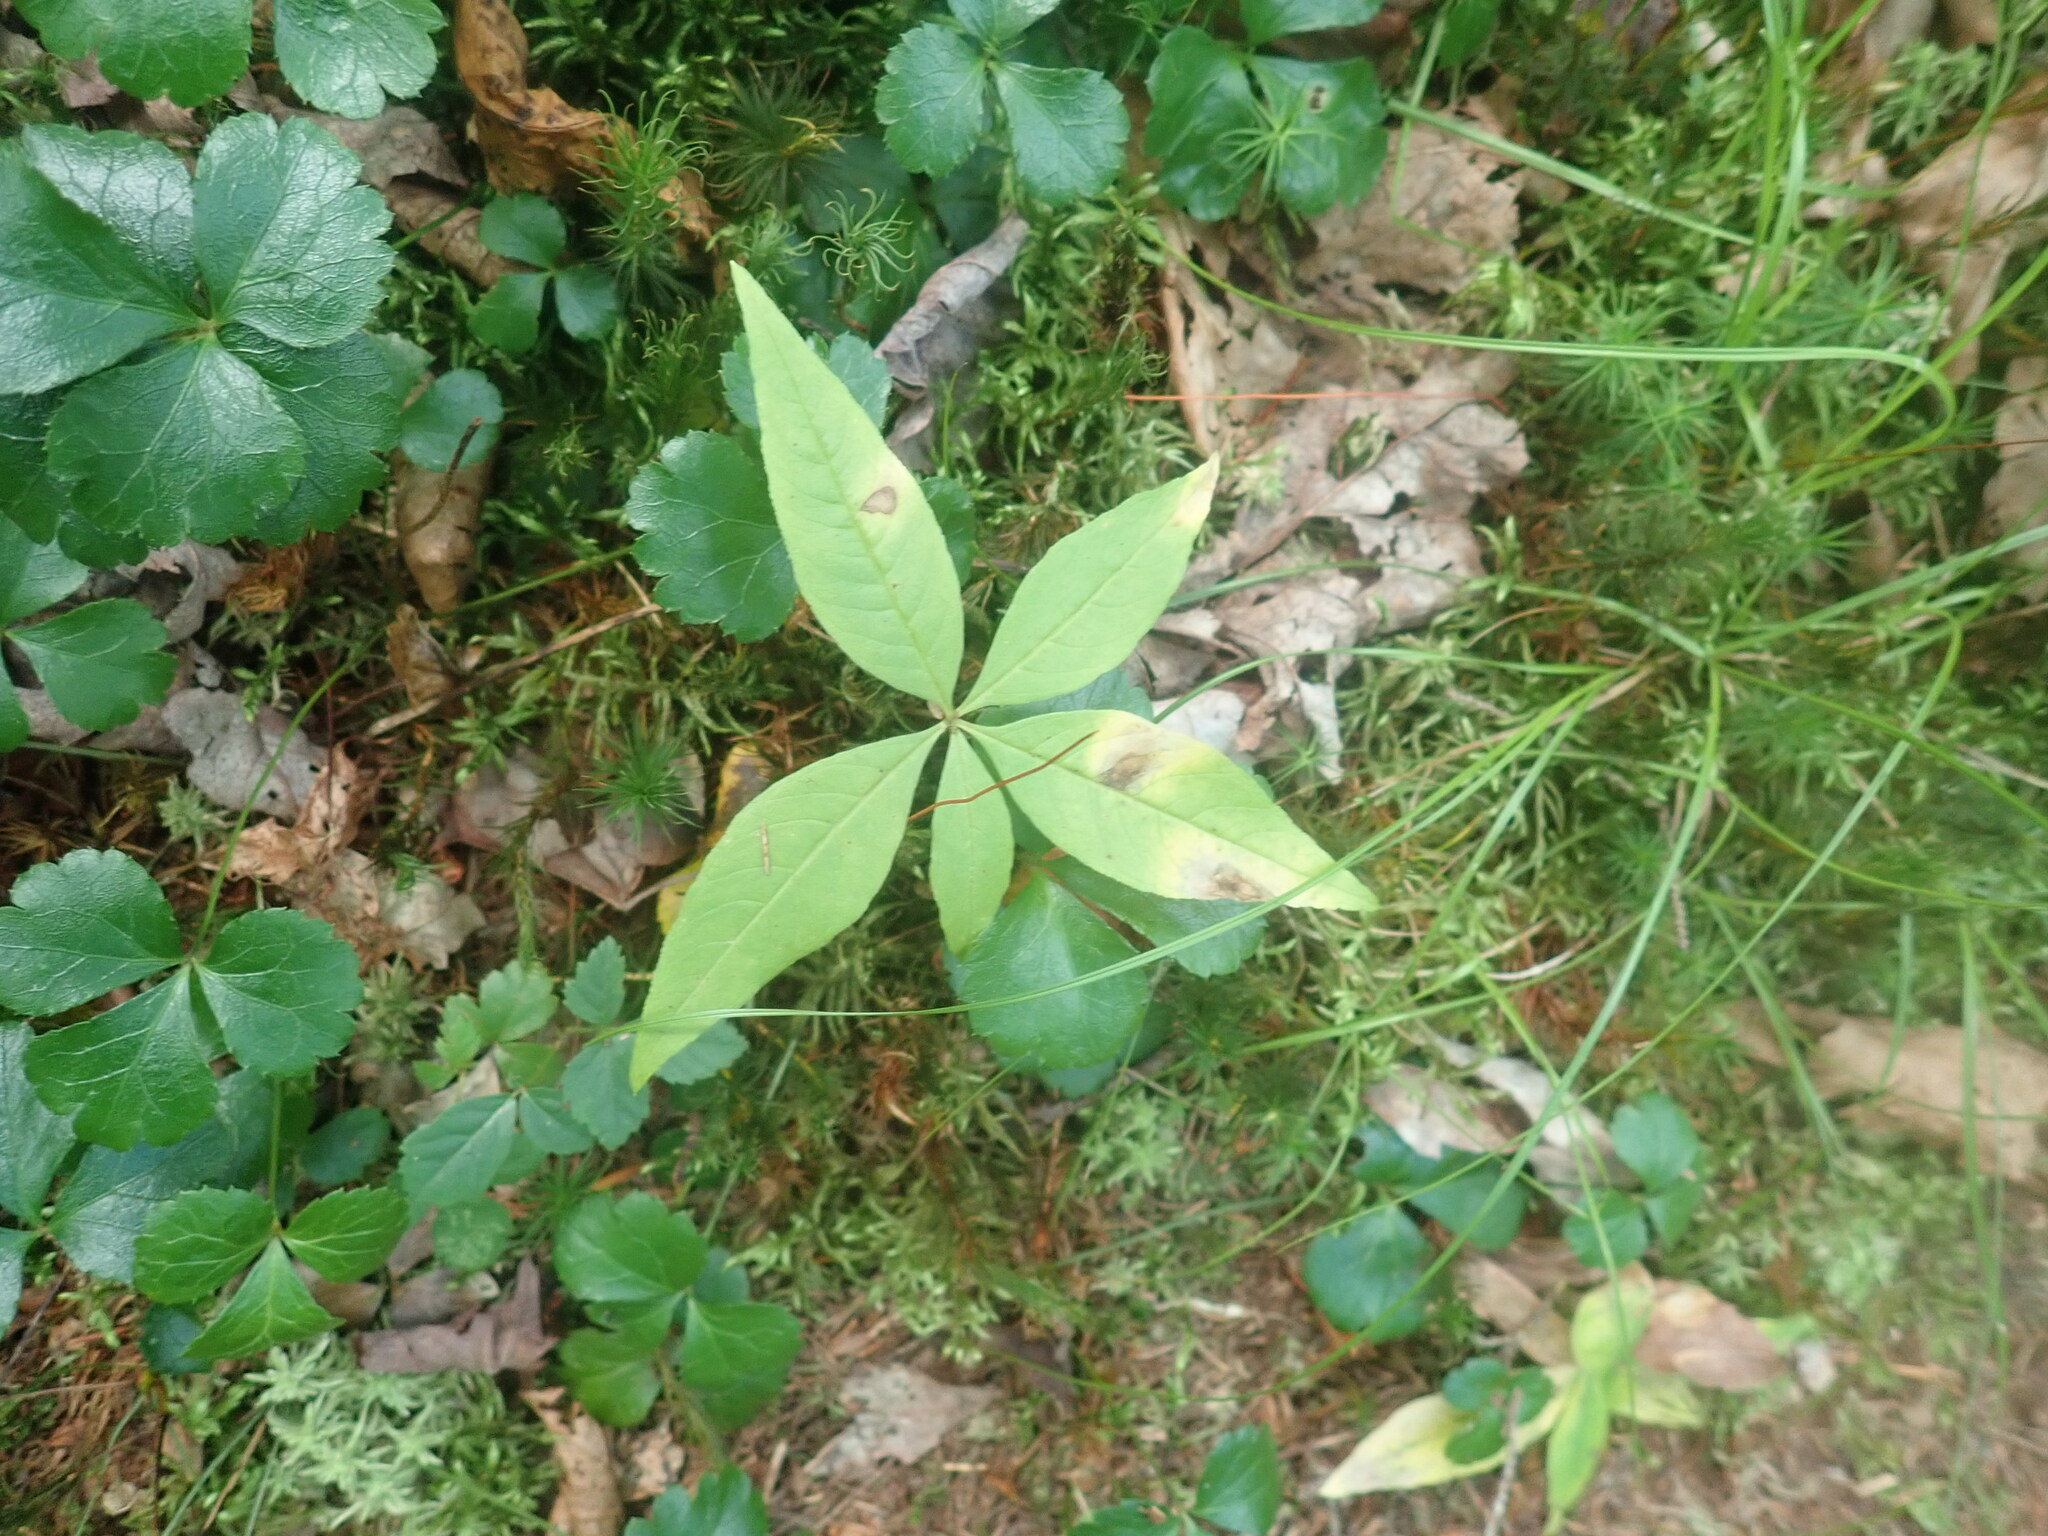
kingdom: Plantae
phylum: Tracheophyta
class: Magnoliopsida
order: Ericales
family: Primulaceae
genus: Lysimachia
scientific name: Lysimachia borealis
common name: American starflower
